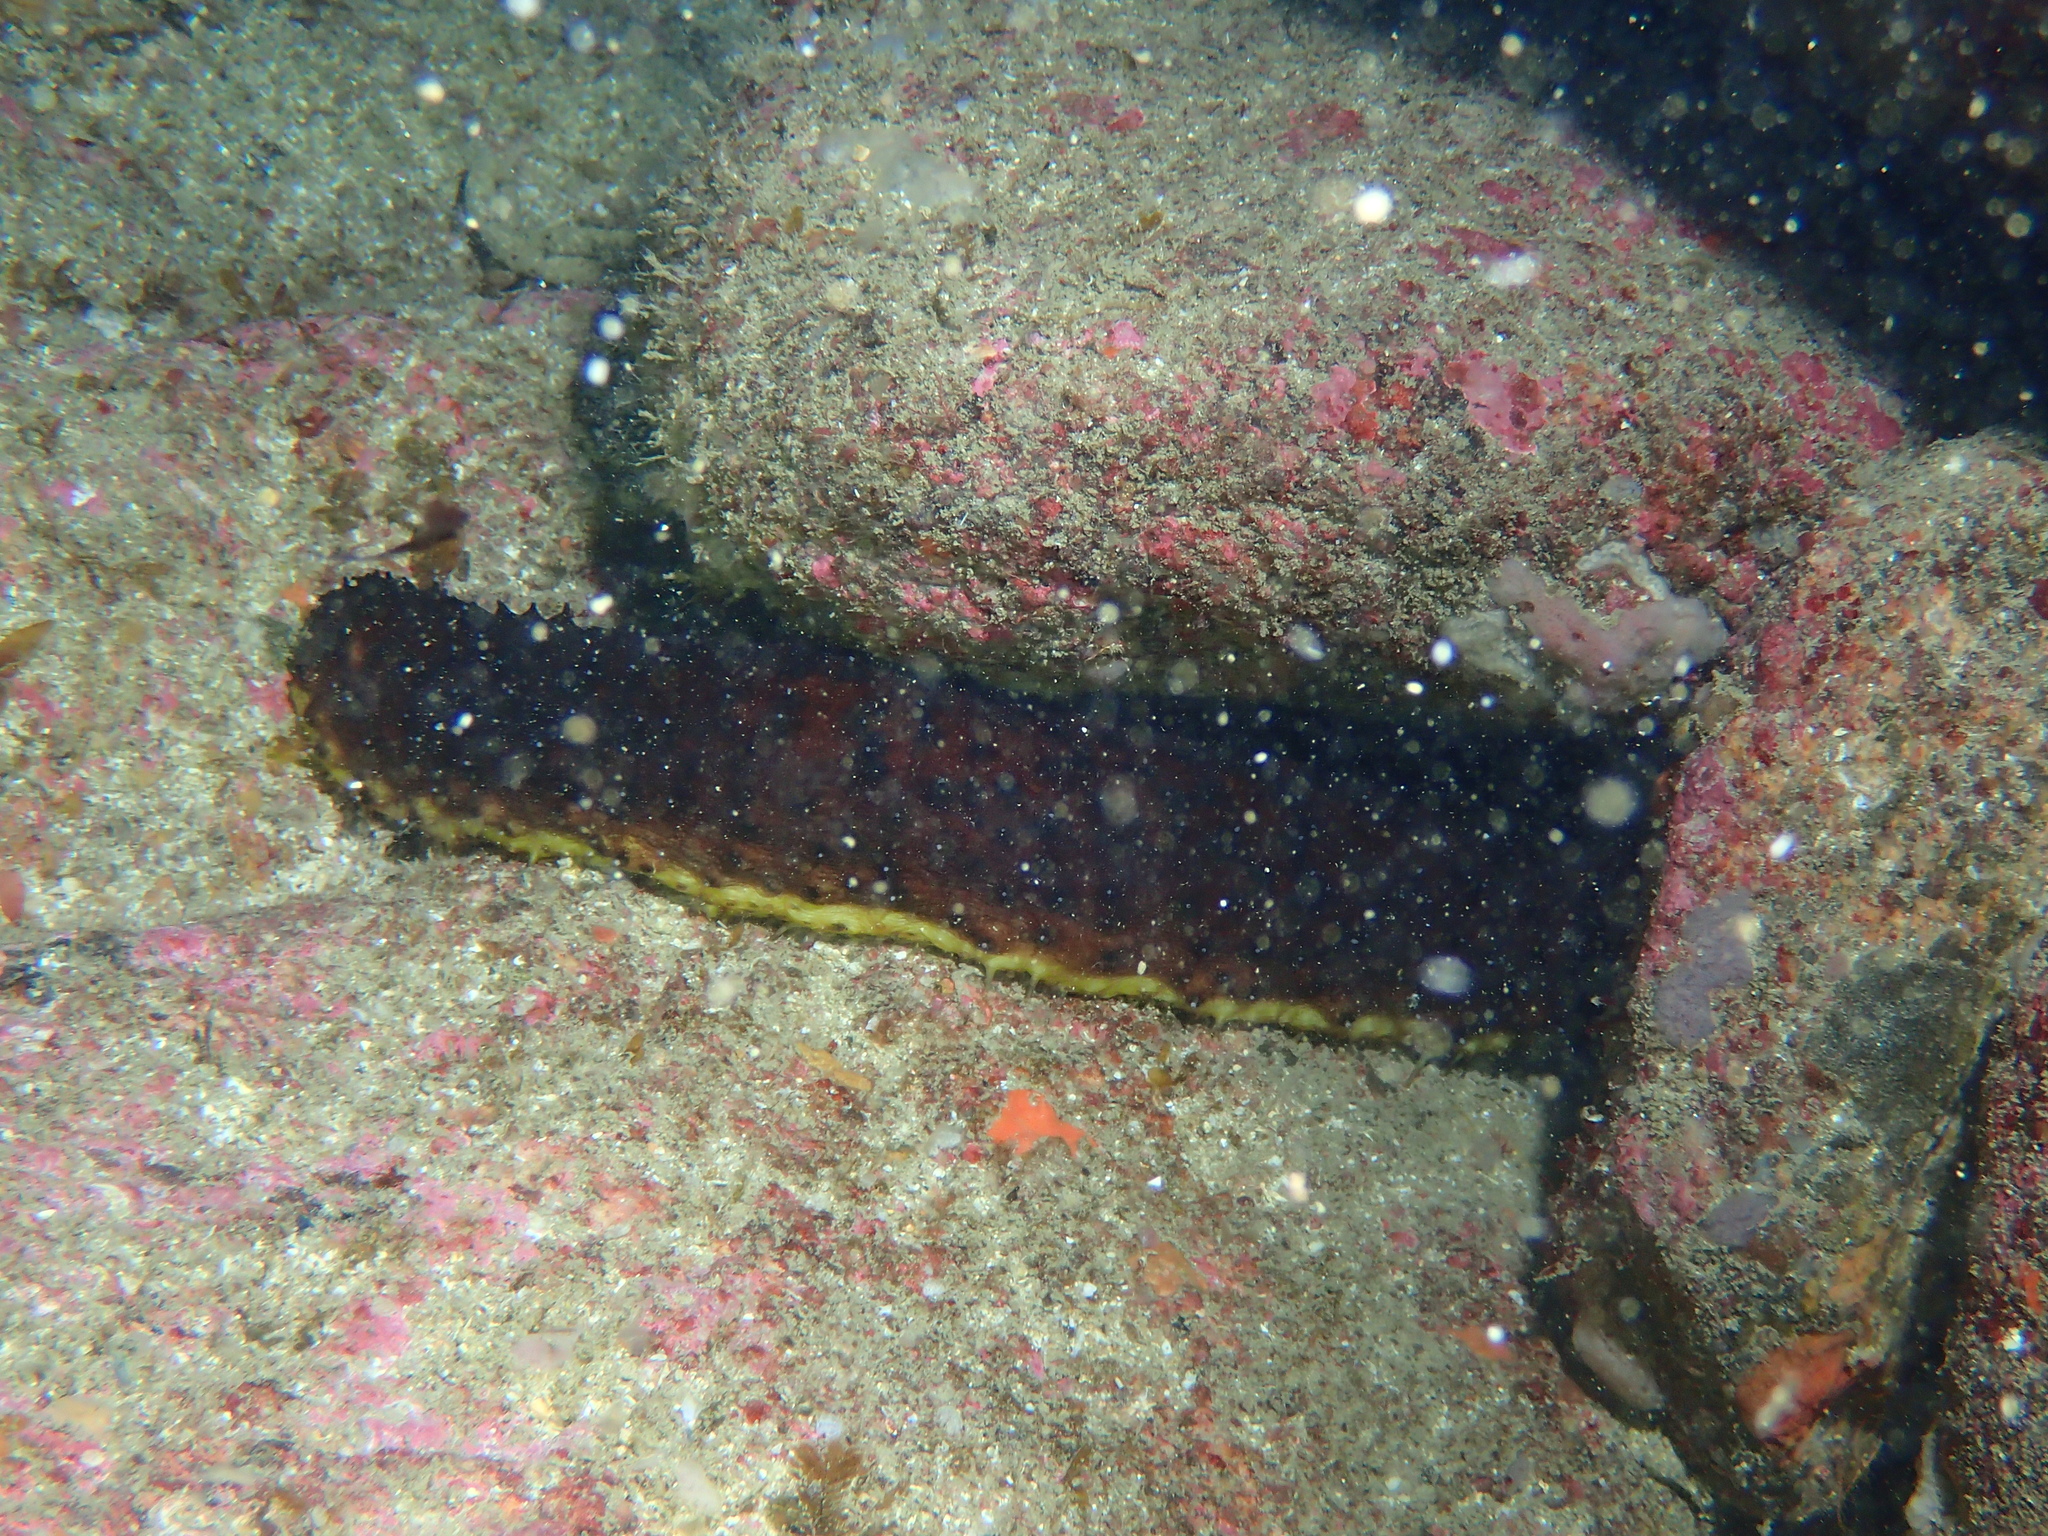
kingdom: Animalia
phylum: Echinodermata
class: Holothuroidea
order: Holothuriida
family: Holothuriidae
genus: Holothuria
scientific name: Holothuria forskali
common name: Black sea cucumber
